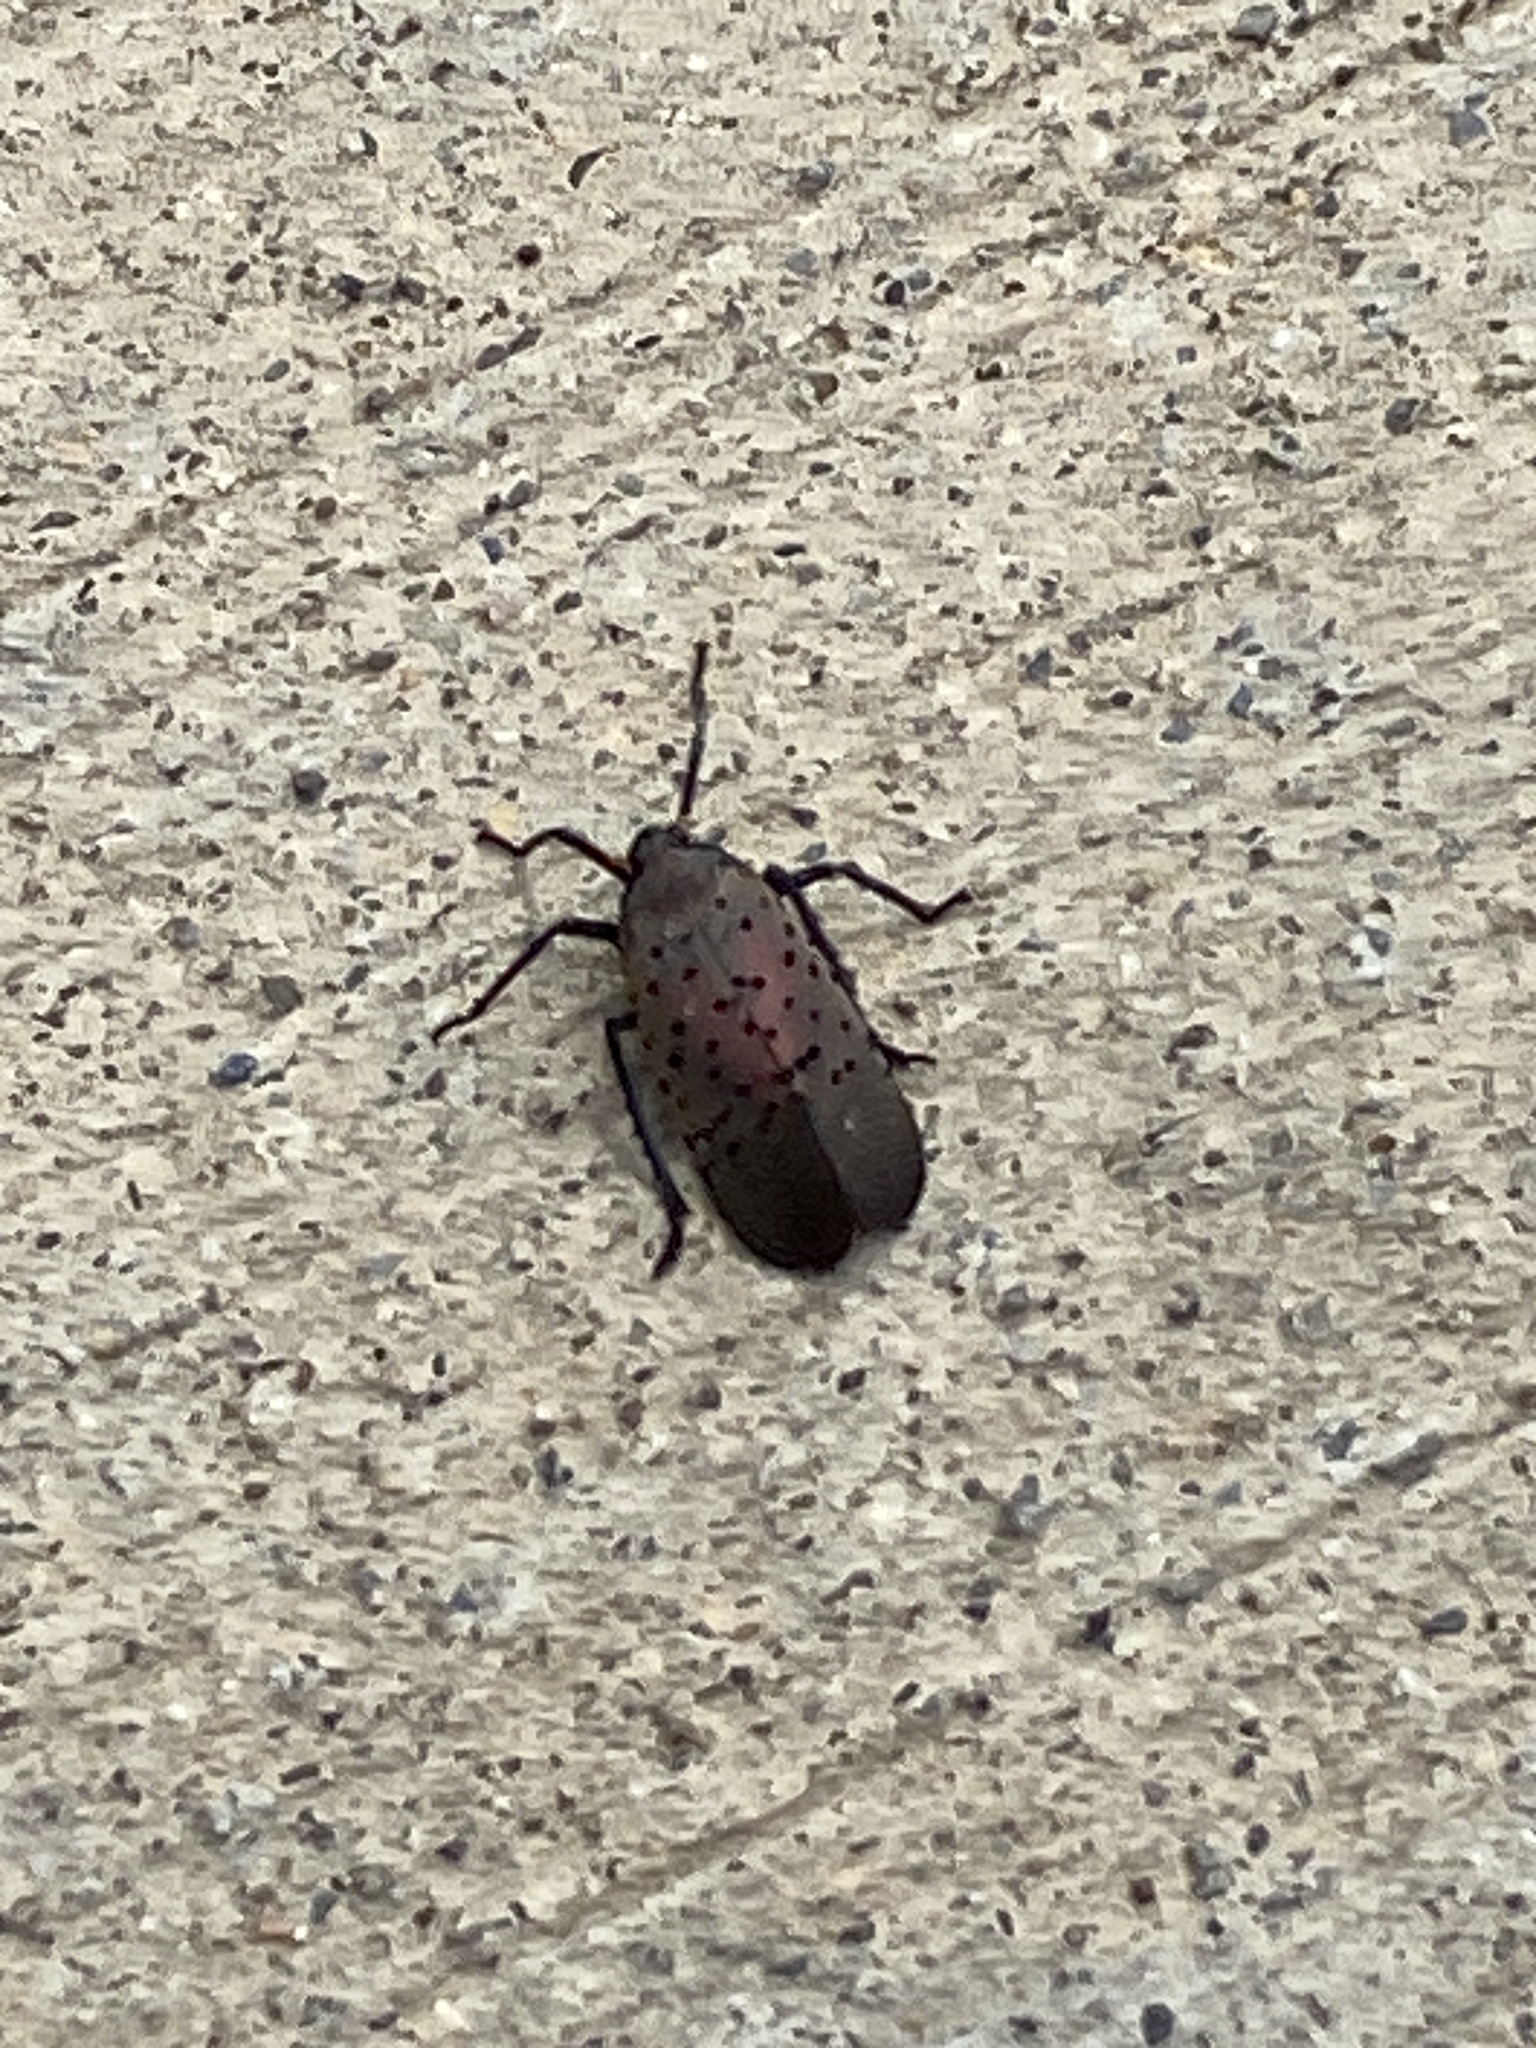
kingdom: Animalia
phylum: Arthropoda
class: Insecta
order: Hemiptera
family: Fulgoridae
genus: Lycorma
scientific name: Lycorma delicatula
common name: Spotted lanternfly
